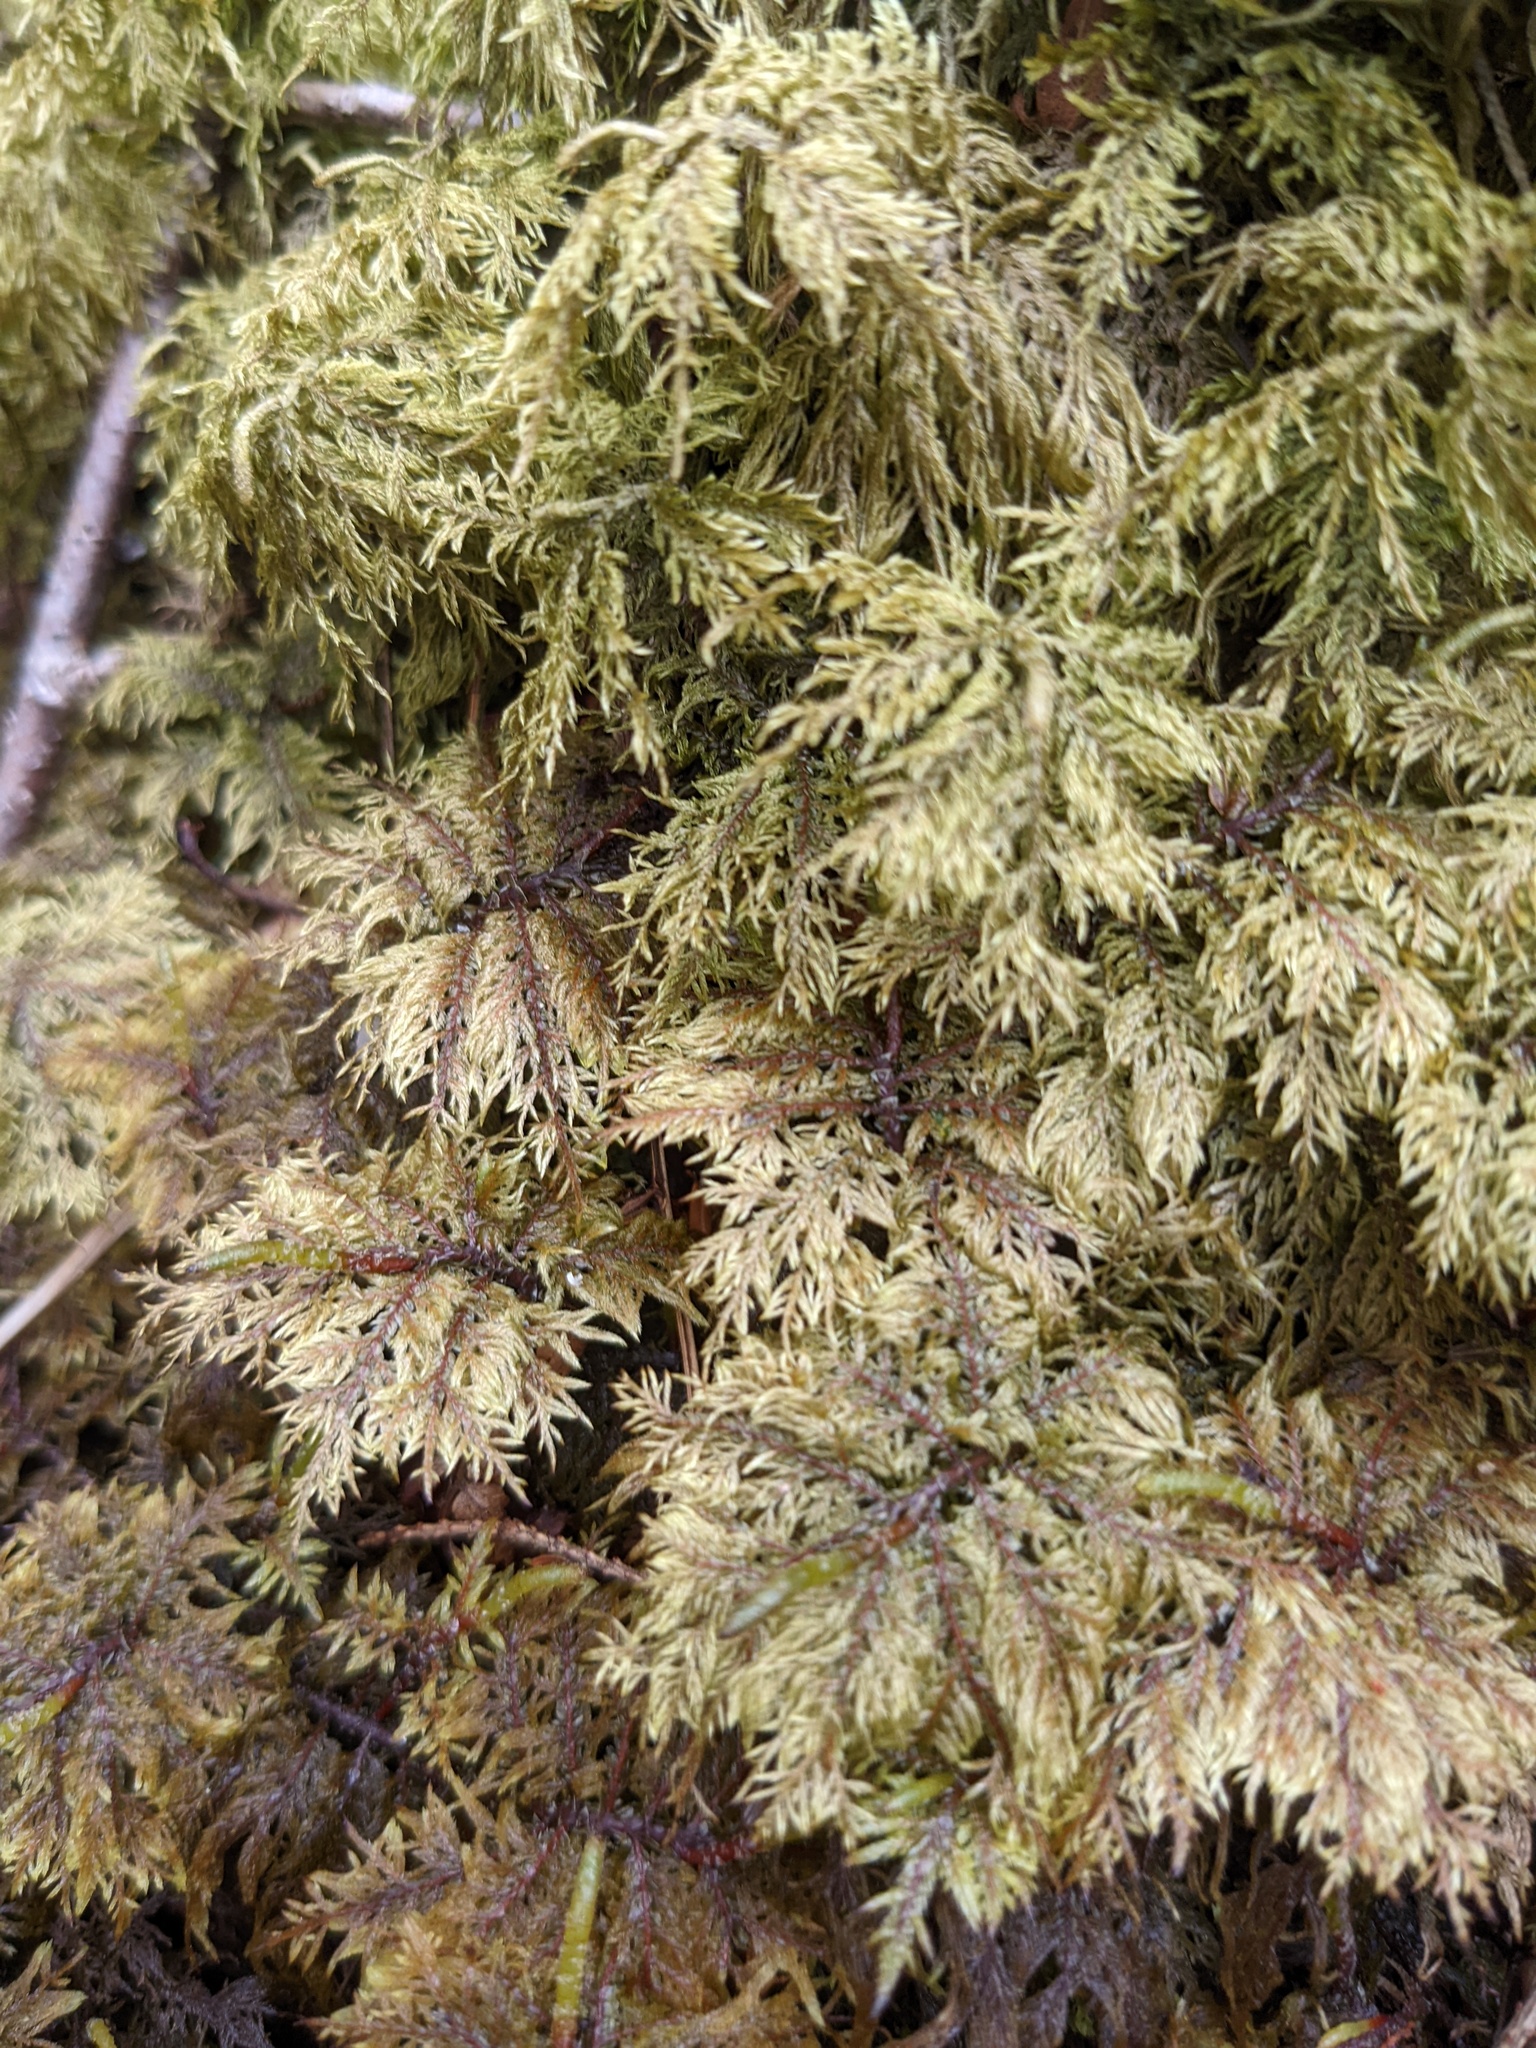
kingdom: Plantae
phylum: Bryophyta
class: Bryopsida
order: Hypnales
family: Hylocomiaceae
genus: Hylocomium
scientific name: Hylocomium splendens
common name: Stairstep moss
